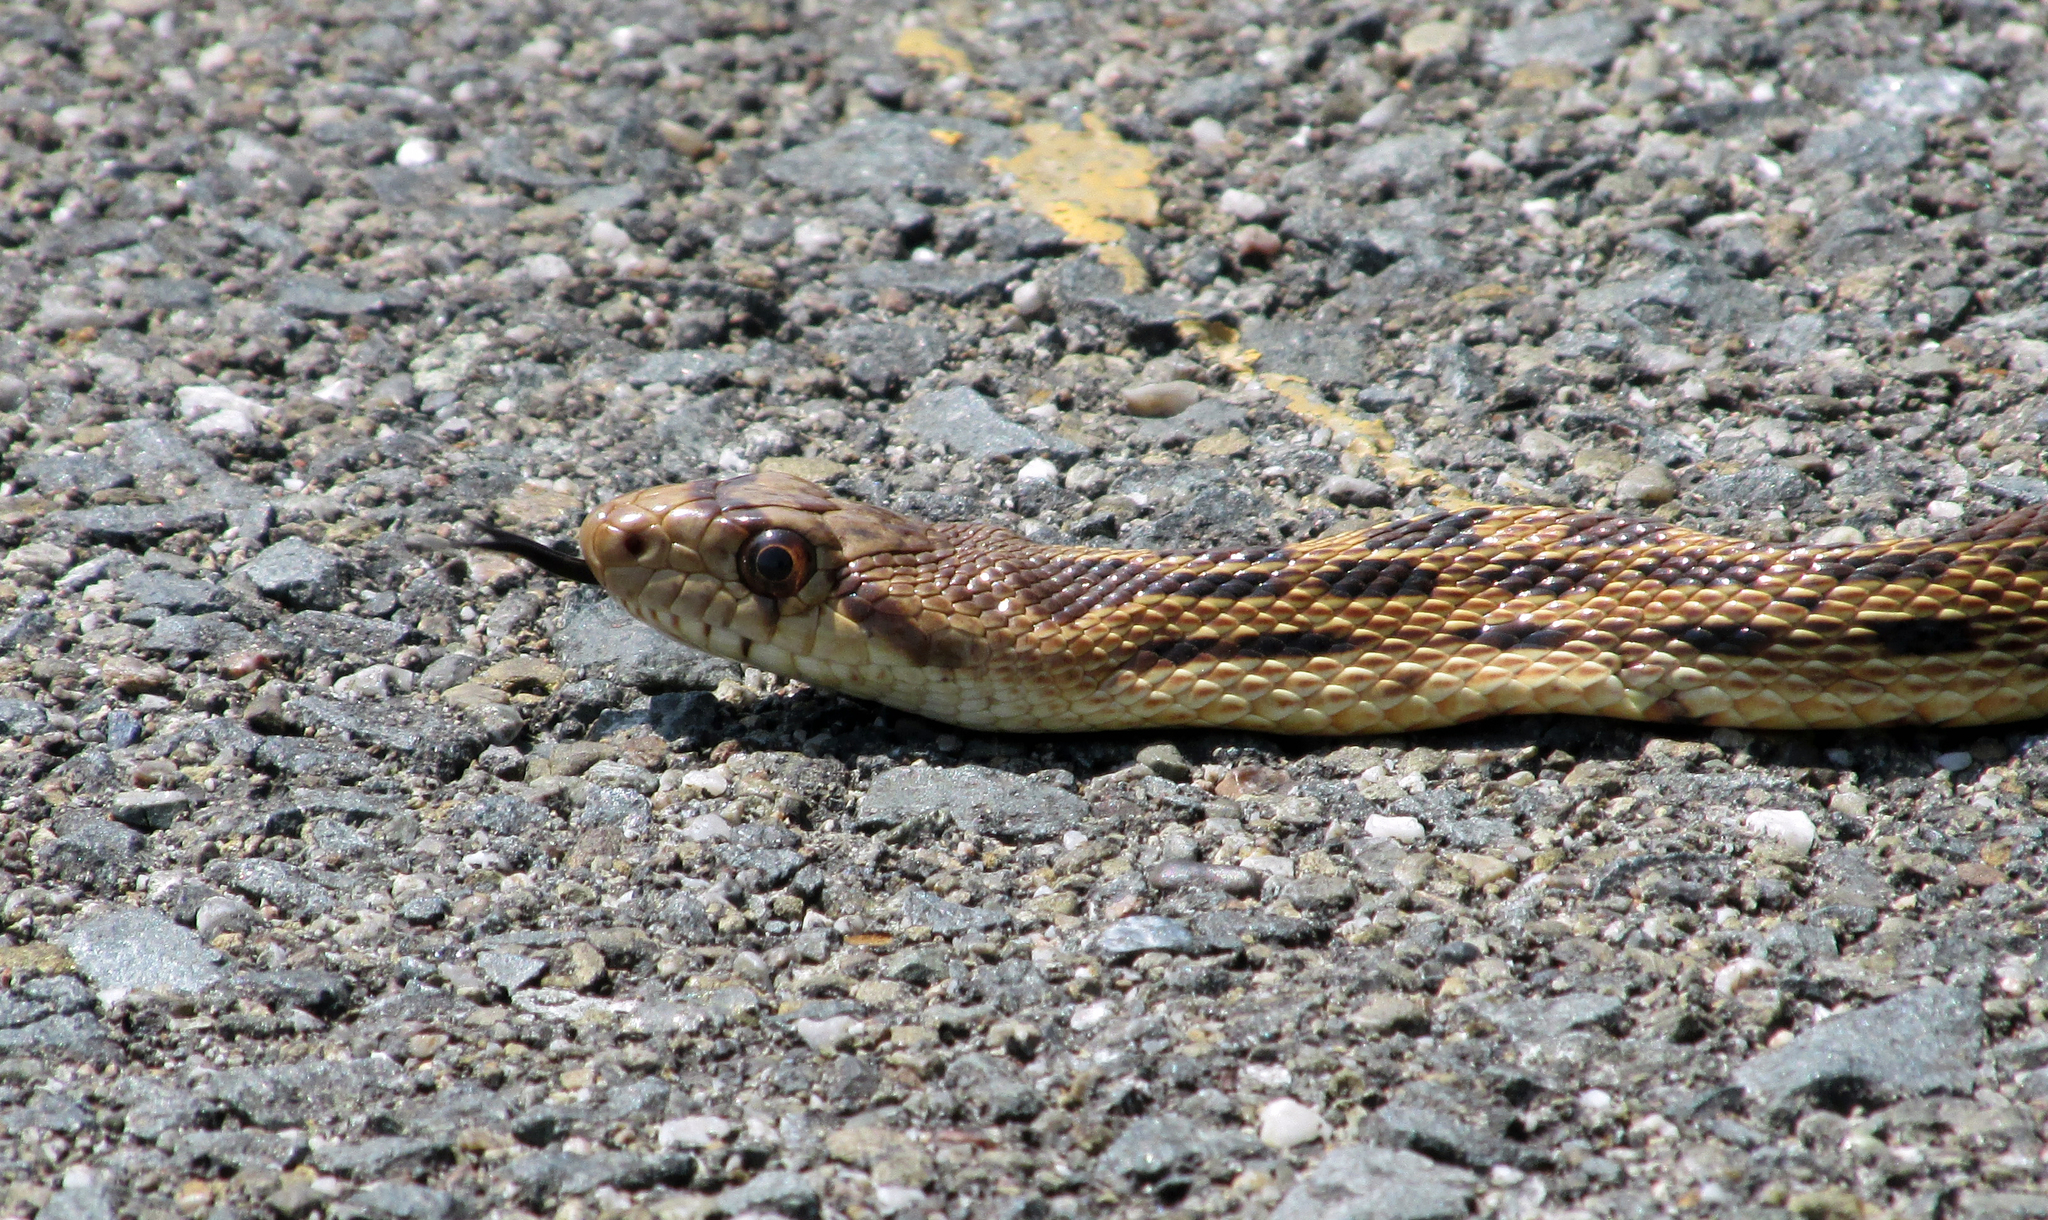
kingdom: Animalia
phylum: Chordata
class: Squamata
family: Colubridae
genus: Pituophis
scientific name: Pituophis catenifer
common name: Gopher snake
